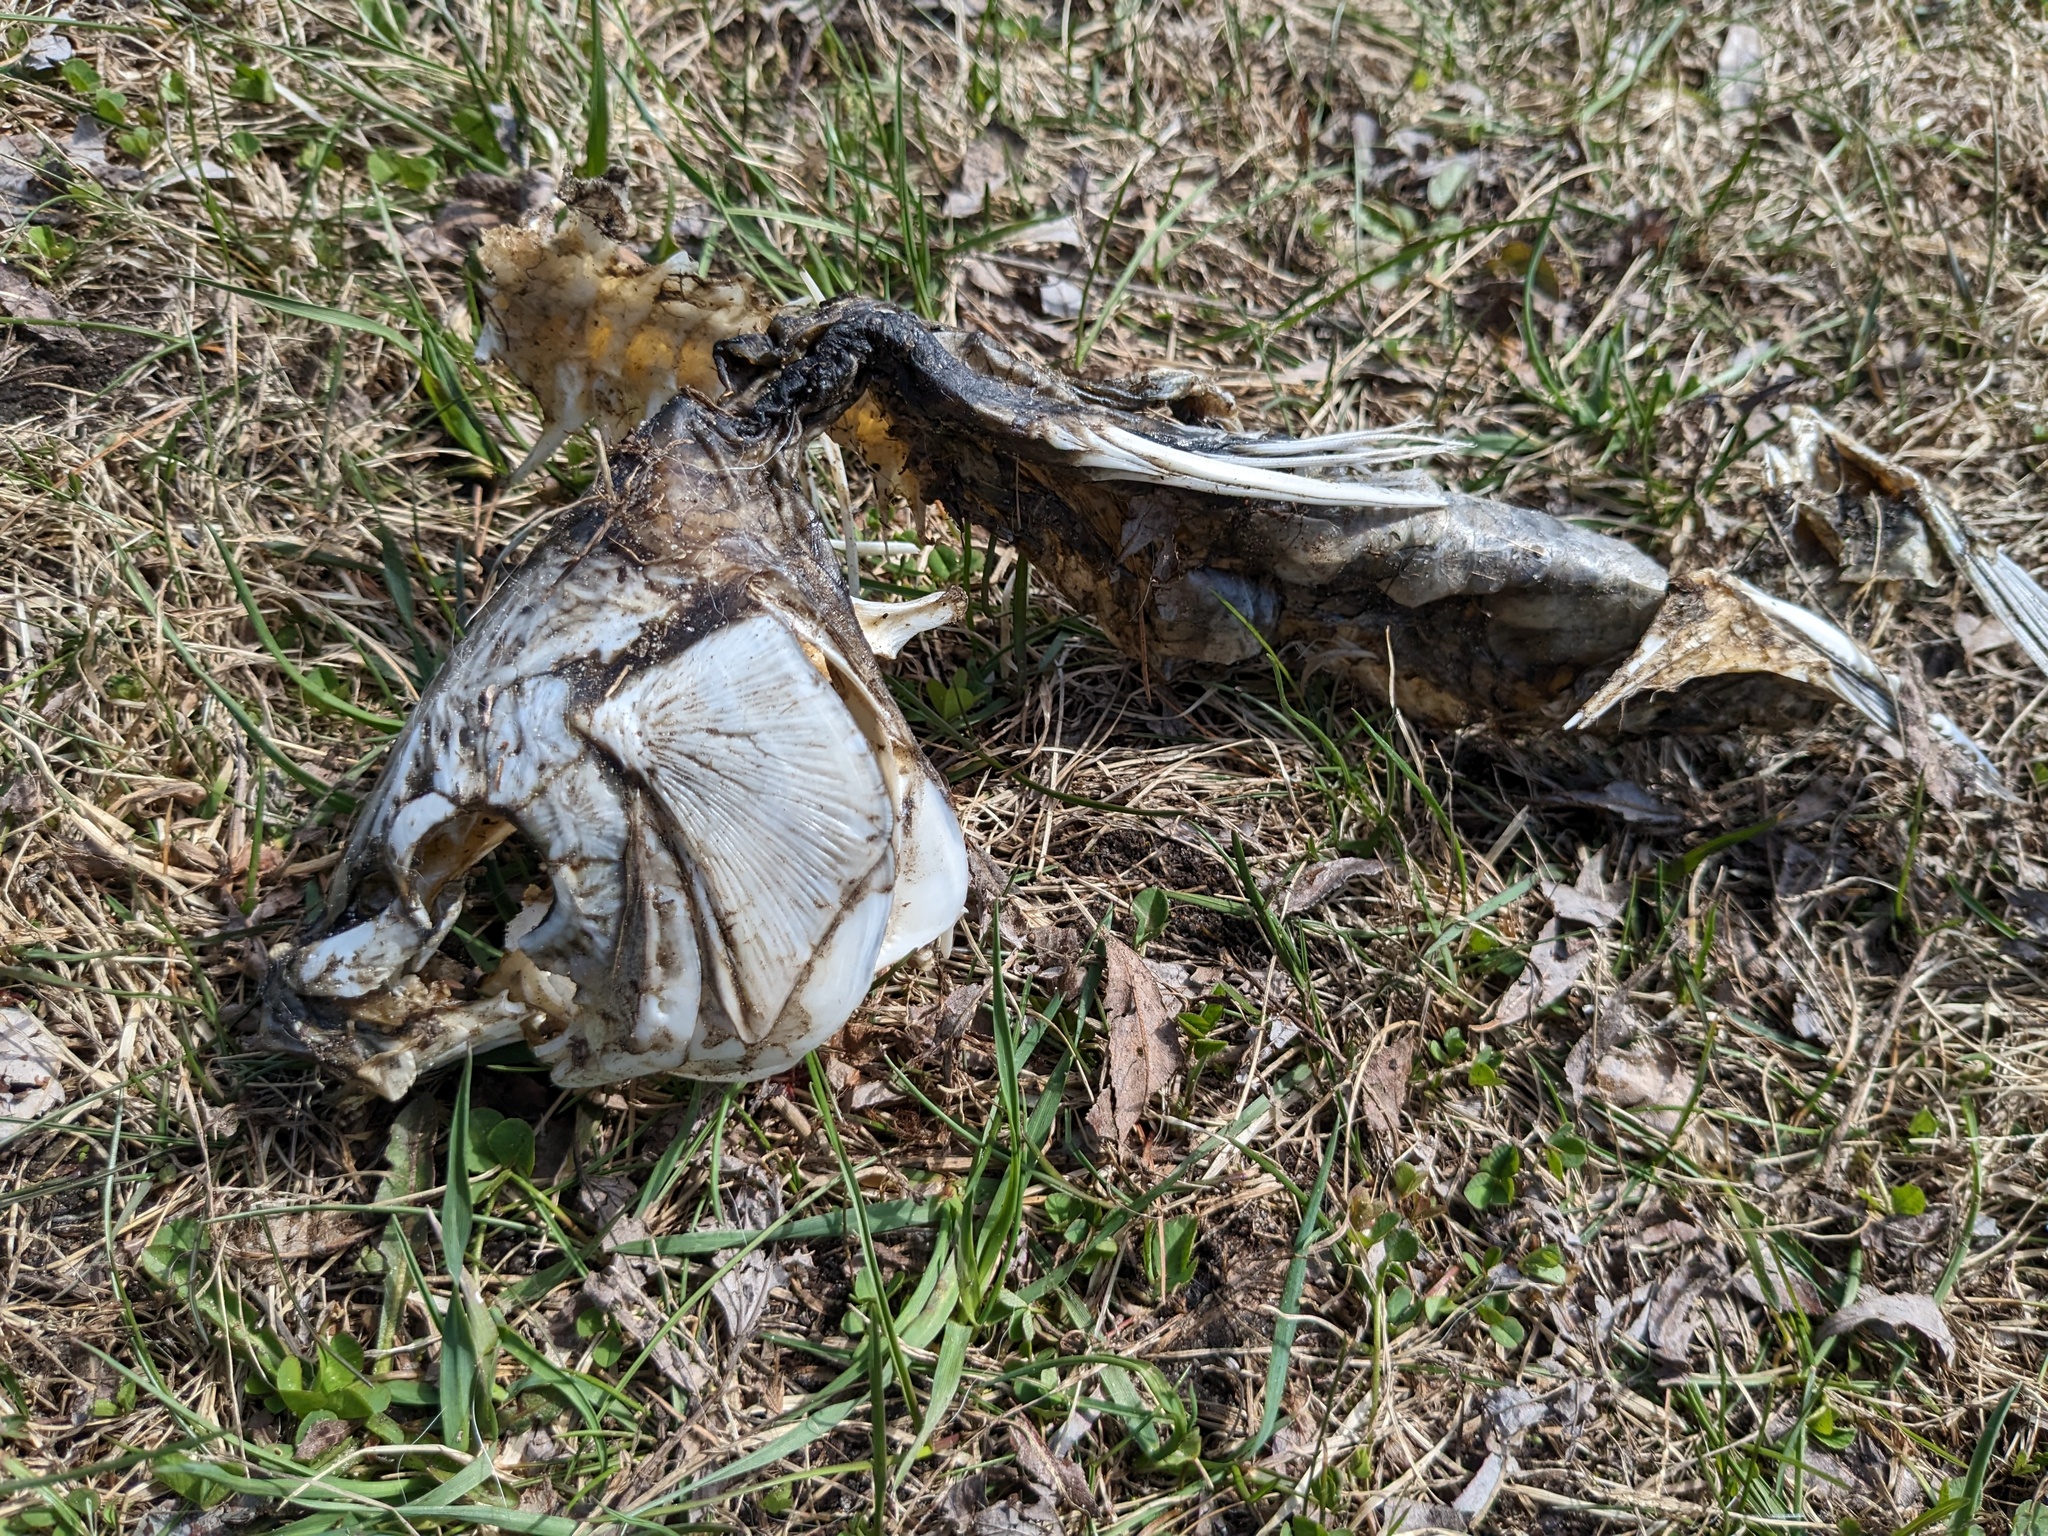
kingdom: Animalia
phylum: Chordata
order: Cypriniformes
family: Cyprinidae
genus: Cyprinus
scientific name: Cyprinus carpio
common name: Common carp
